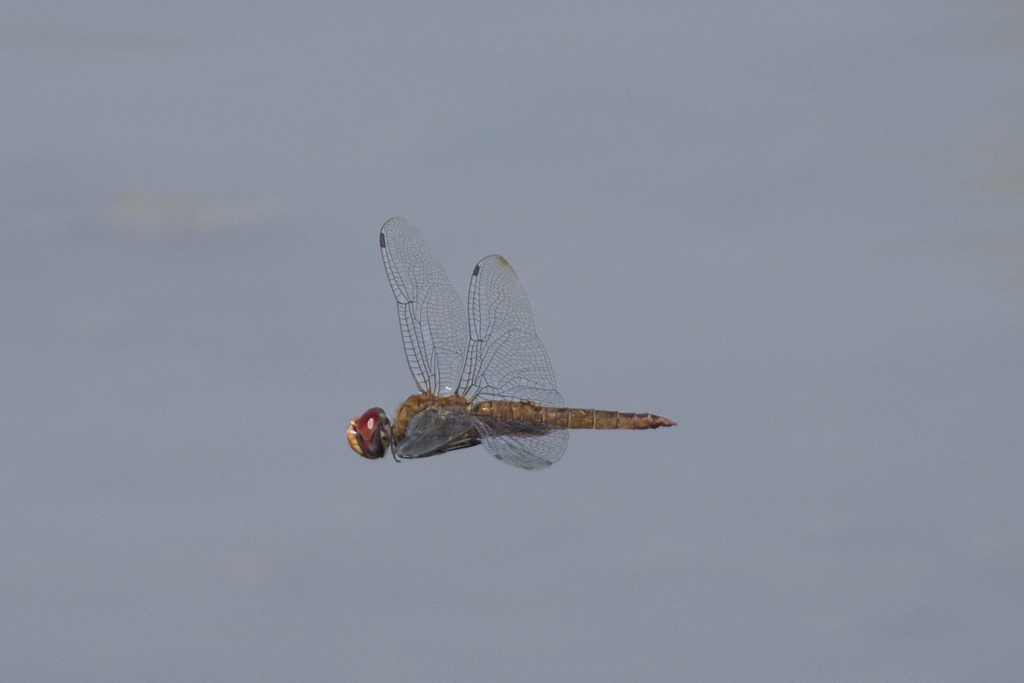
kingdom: Animalia
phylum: Arthropoda
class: Insecta
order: Odonata
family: Libellulidae
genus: Pantala
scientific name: Pantala hymenaea
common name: Spot-winged glider
